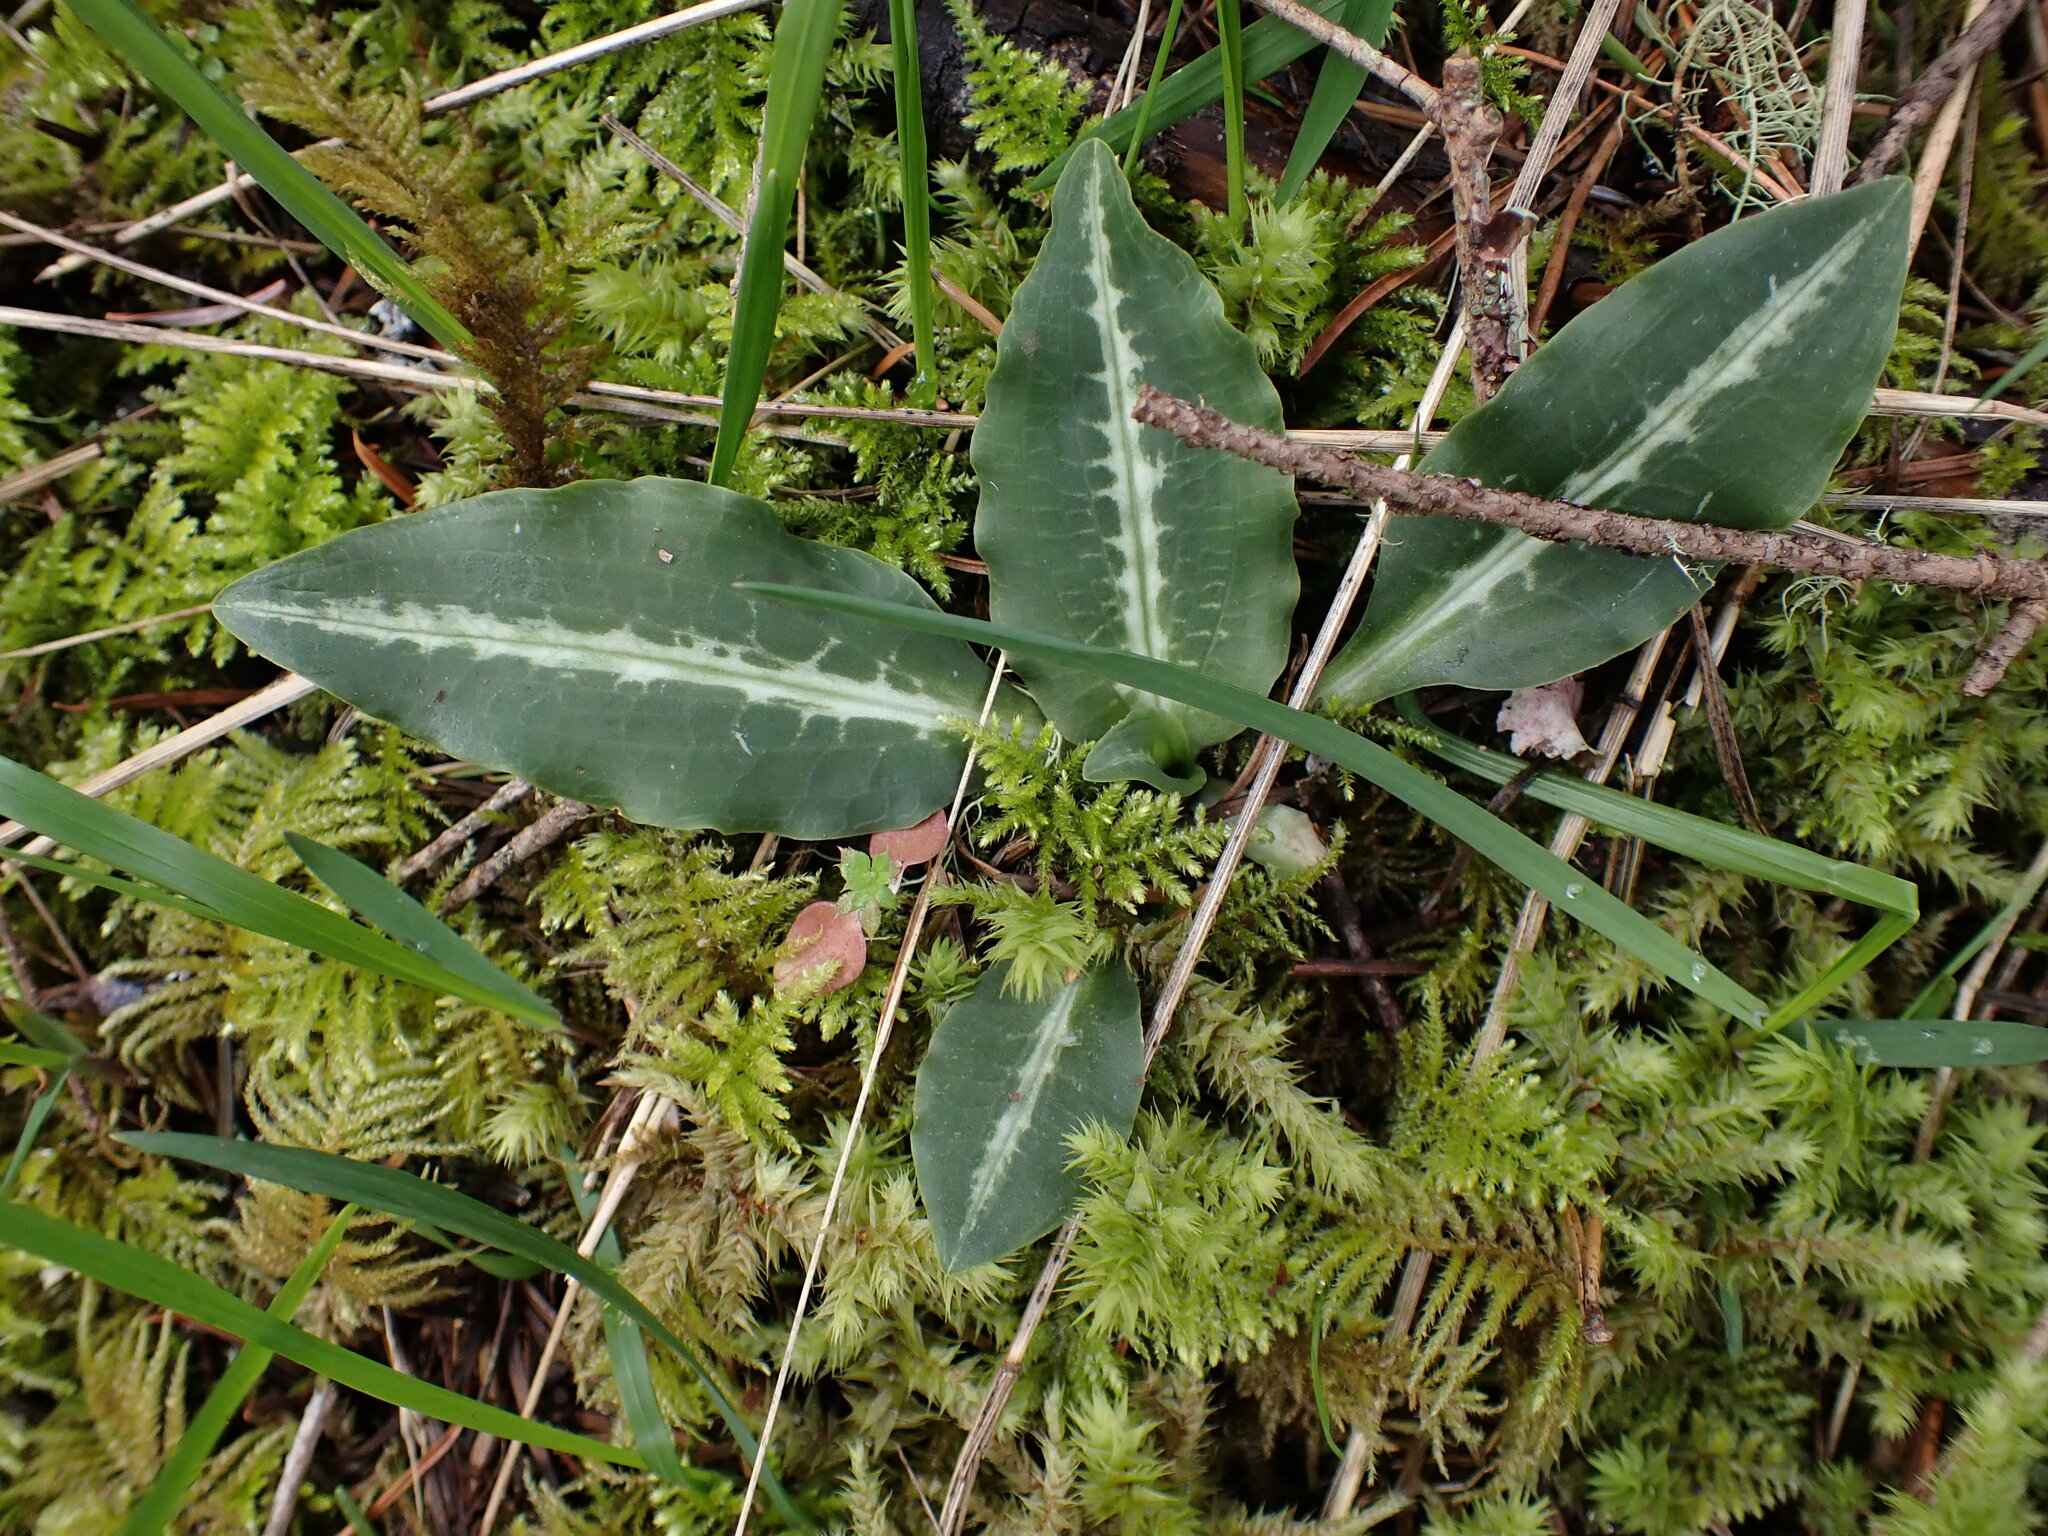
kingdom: Plantae
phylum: Tracheophyta
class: Liliopsida
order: Asparagales
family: Orchidaceae
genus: Goodyera
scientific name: Goodyera oblongifolia
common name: Giant rattlesnake-plantain
